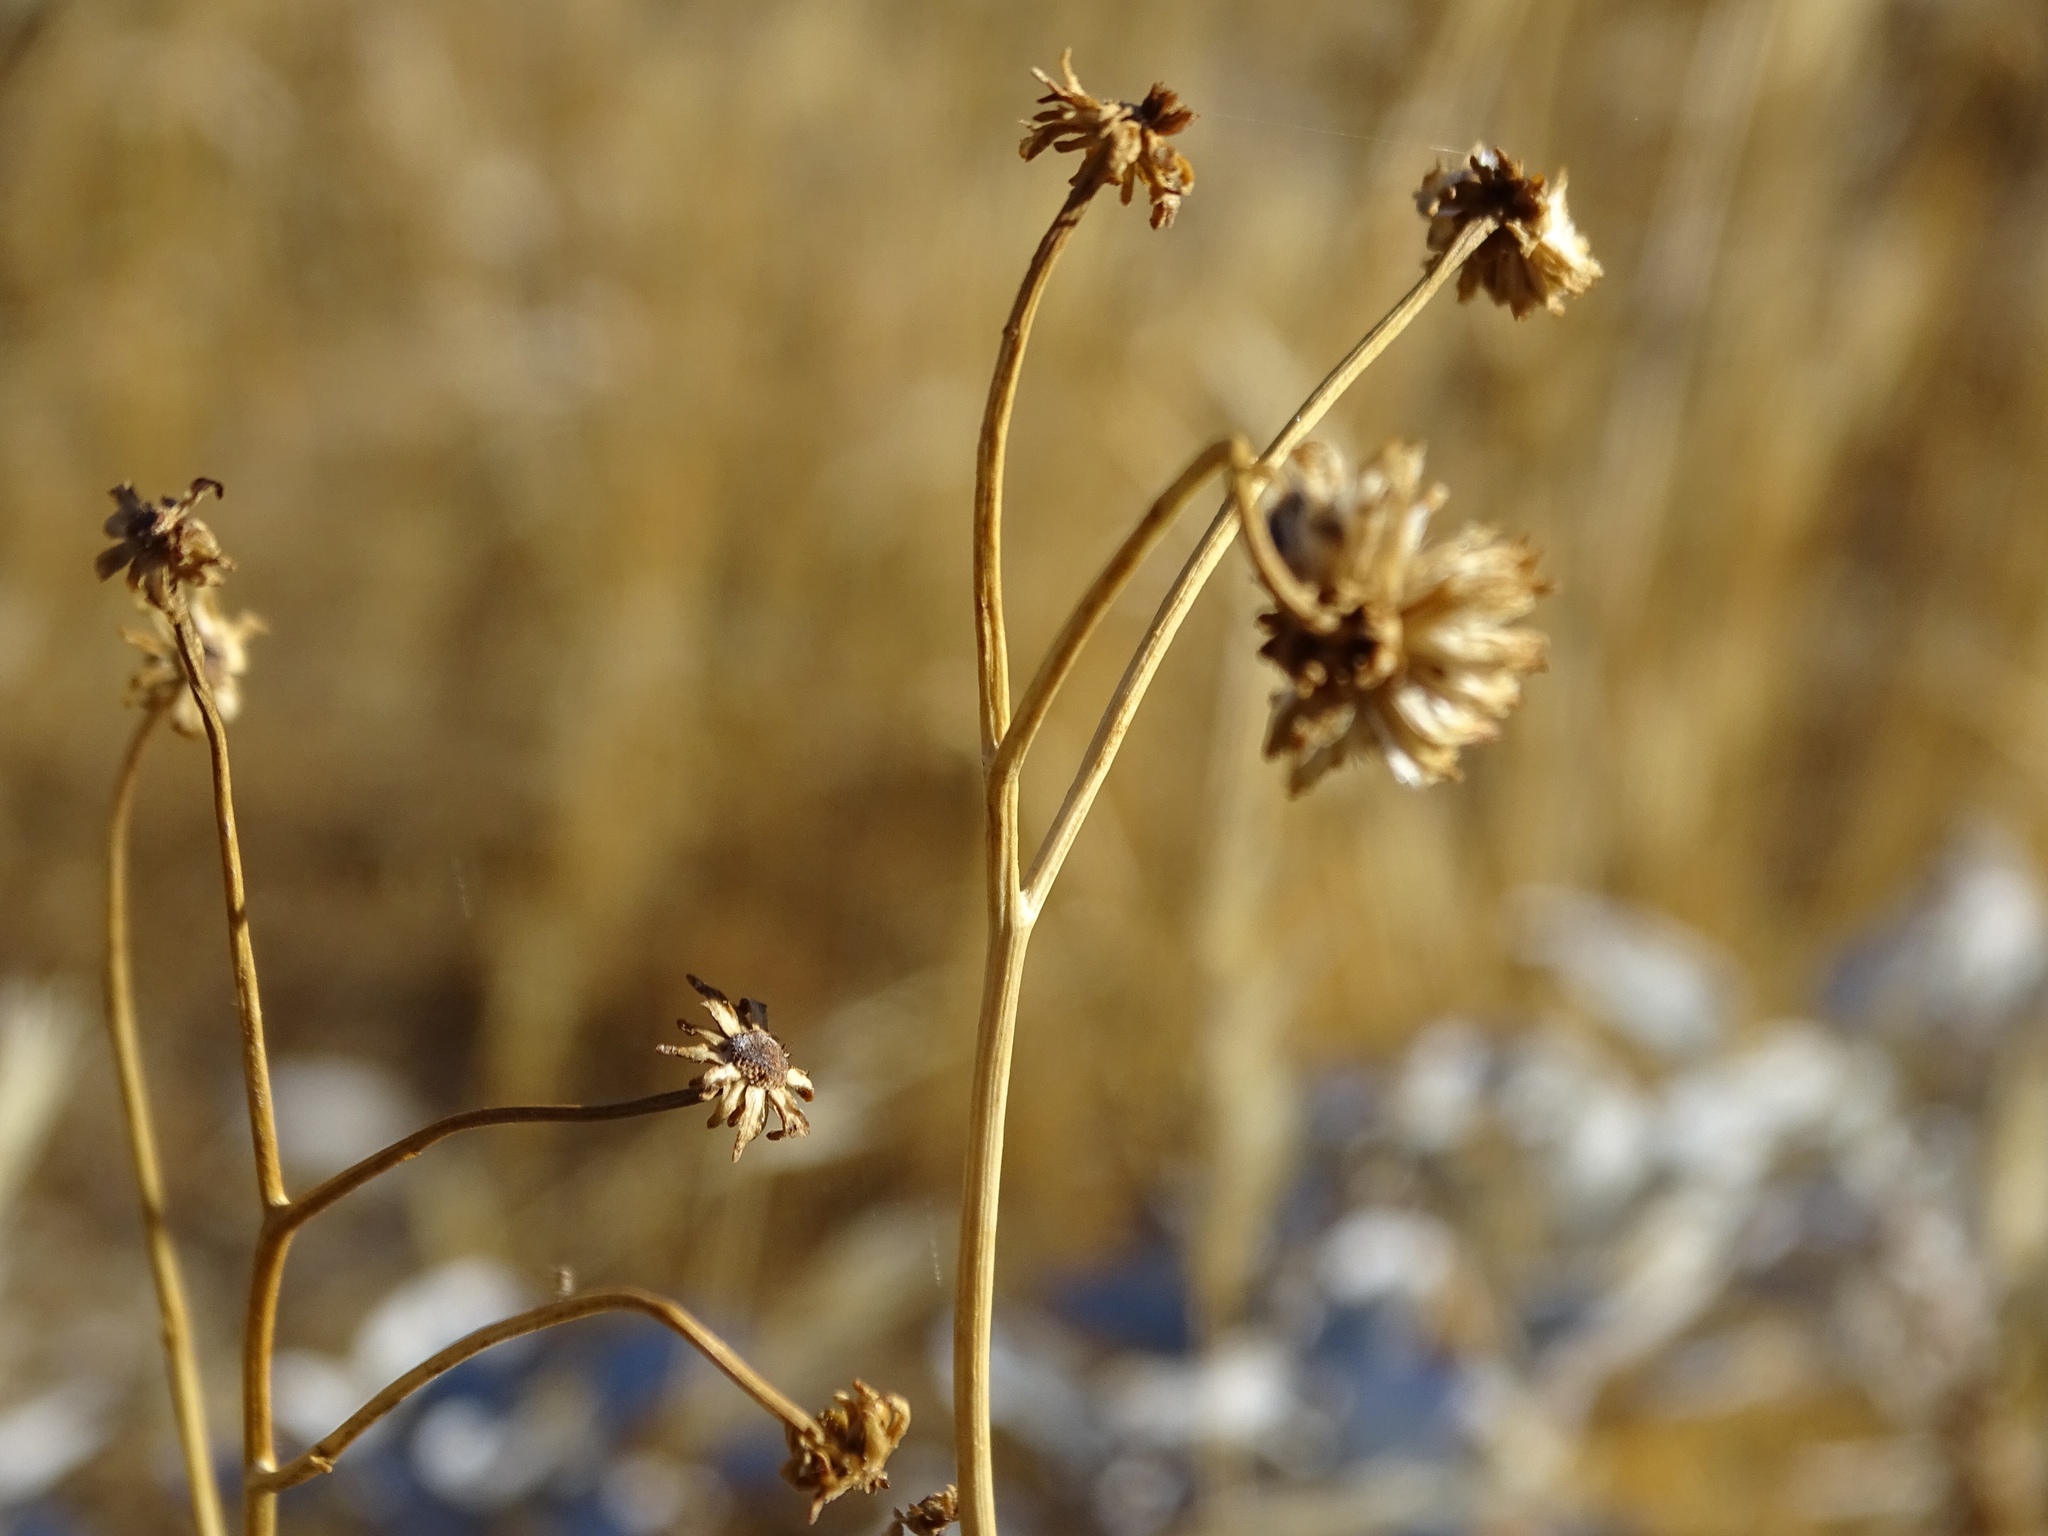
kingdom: Plantae
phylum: Tracheophyta
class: Magnoliopsida
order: Asterales
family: Asteraceae
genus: Encelia
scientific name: Encelia farinosa
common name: Brittlebush
